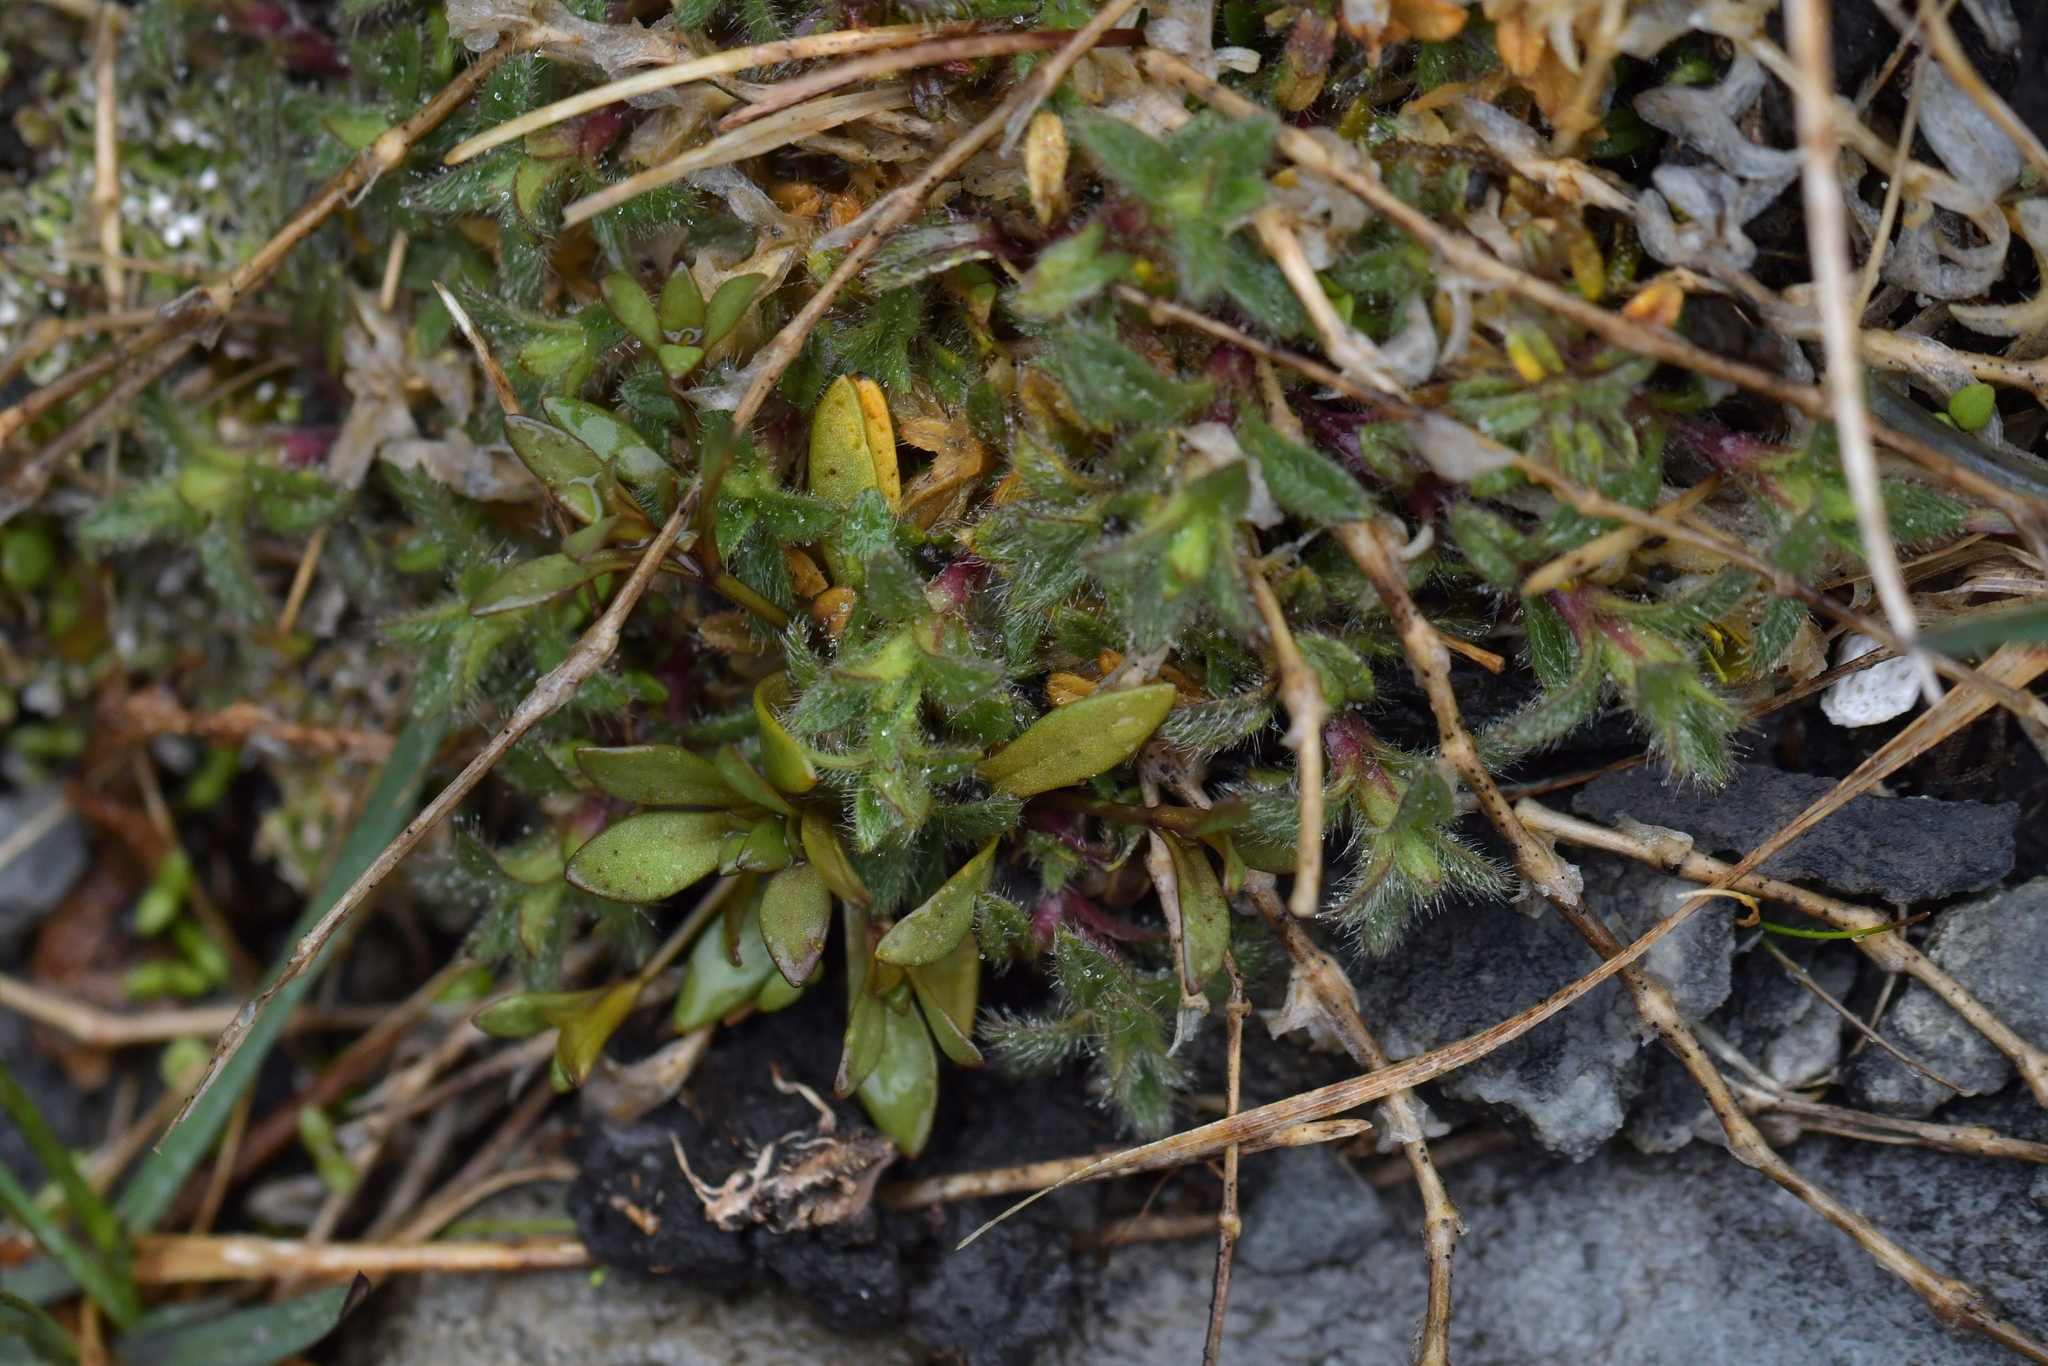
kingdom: Plantae
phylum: Tracheophyta
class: Magnoliopsida
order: Caryophyllales
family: Caryophyllaceae
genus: Cerastium
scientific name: Cerastium fontanum
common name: Common mouse-ear
